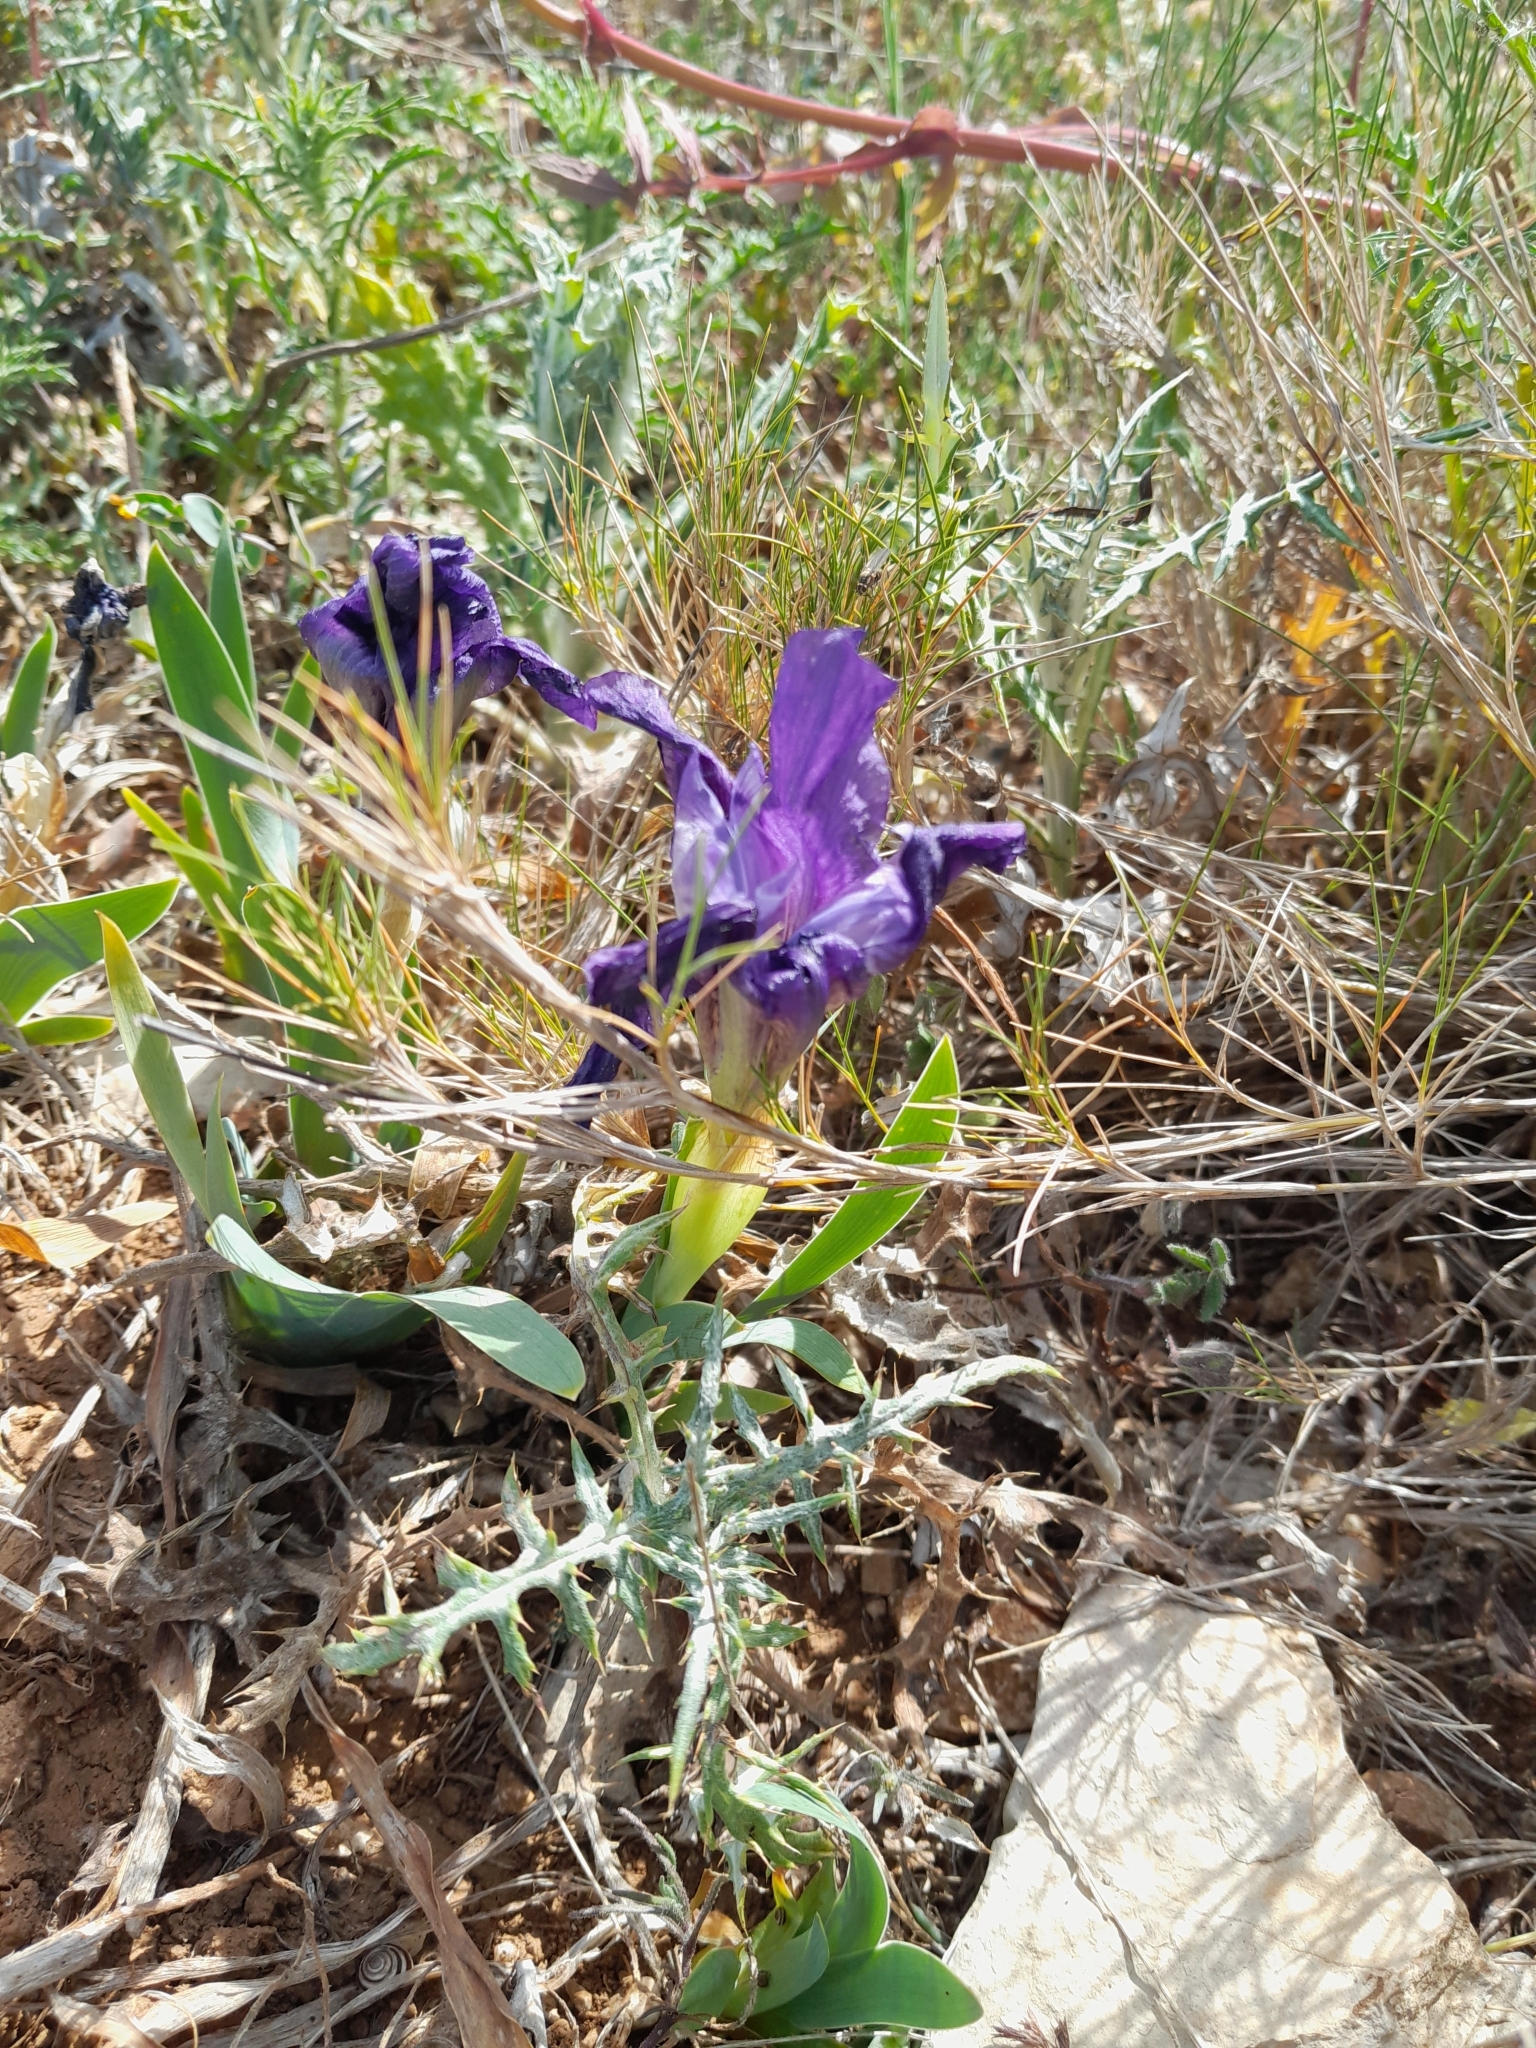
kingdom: Plantae
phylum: Tracheophyta
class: Liliopsida
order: Asparagales
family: Iridaceae
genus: Iris
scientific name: Iris lutescens
